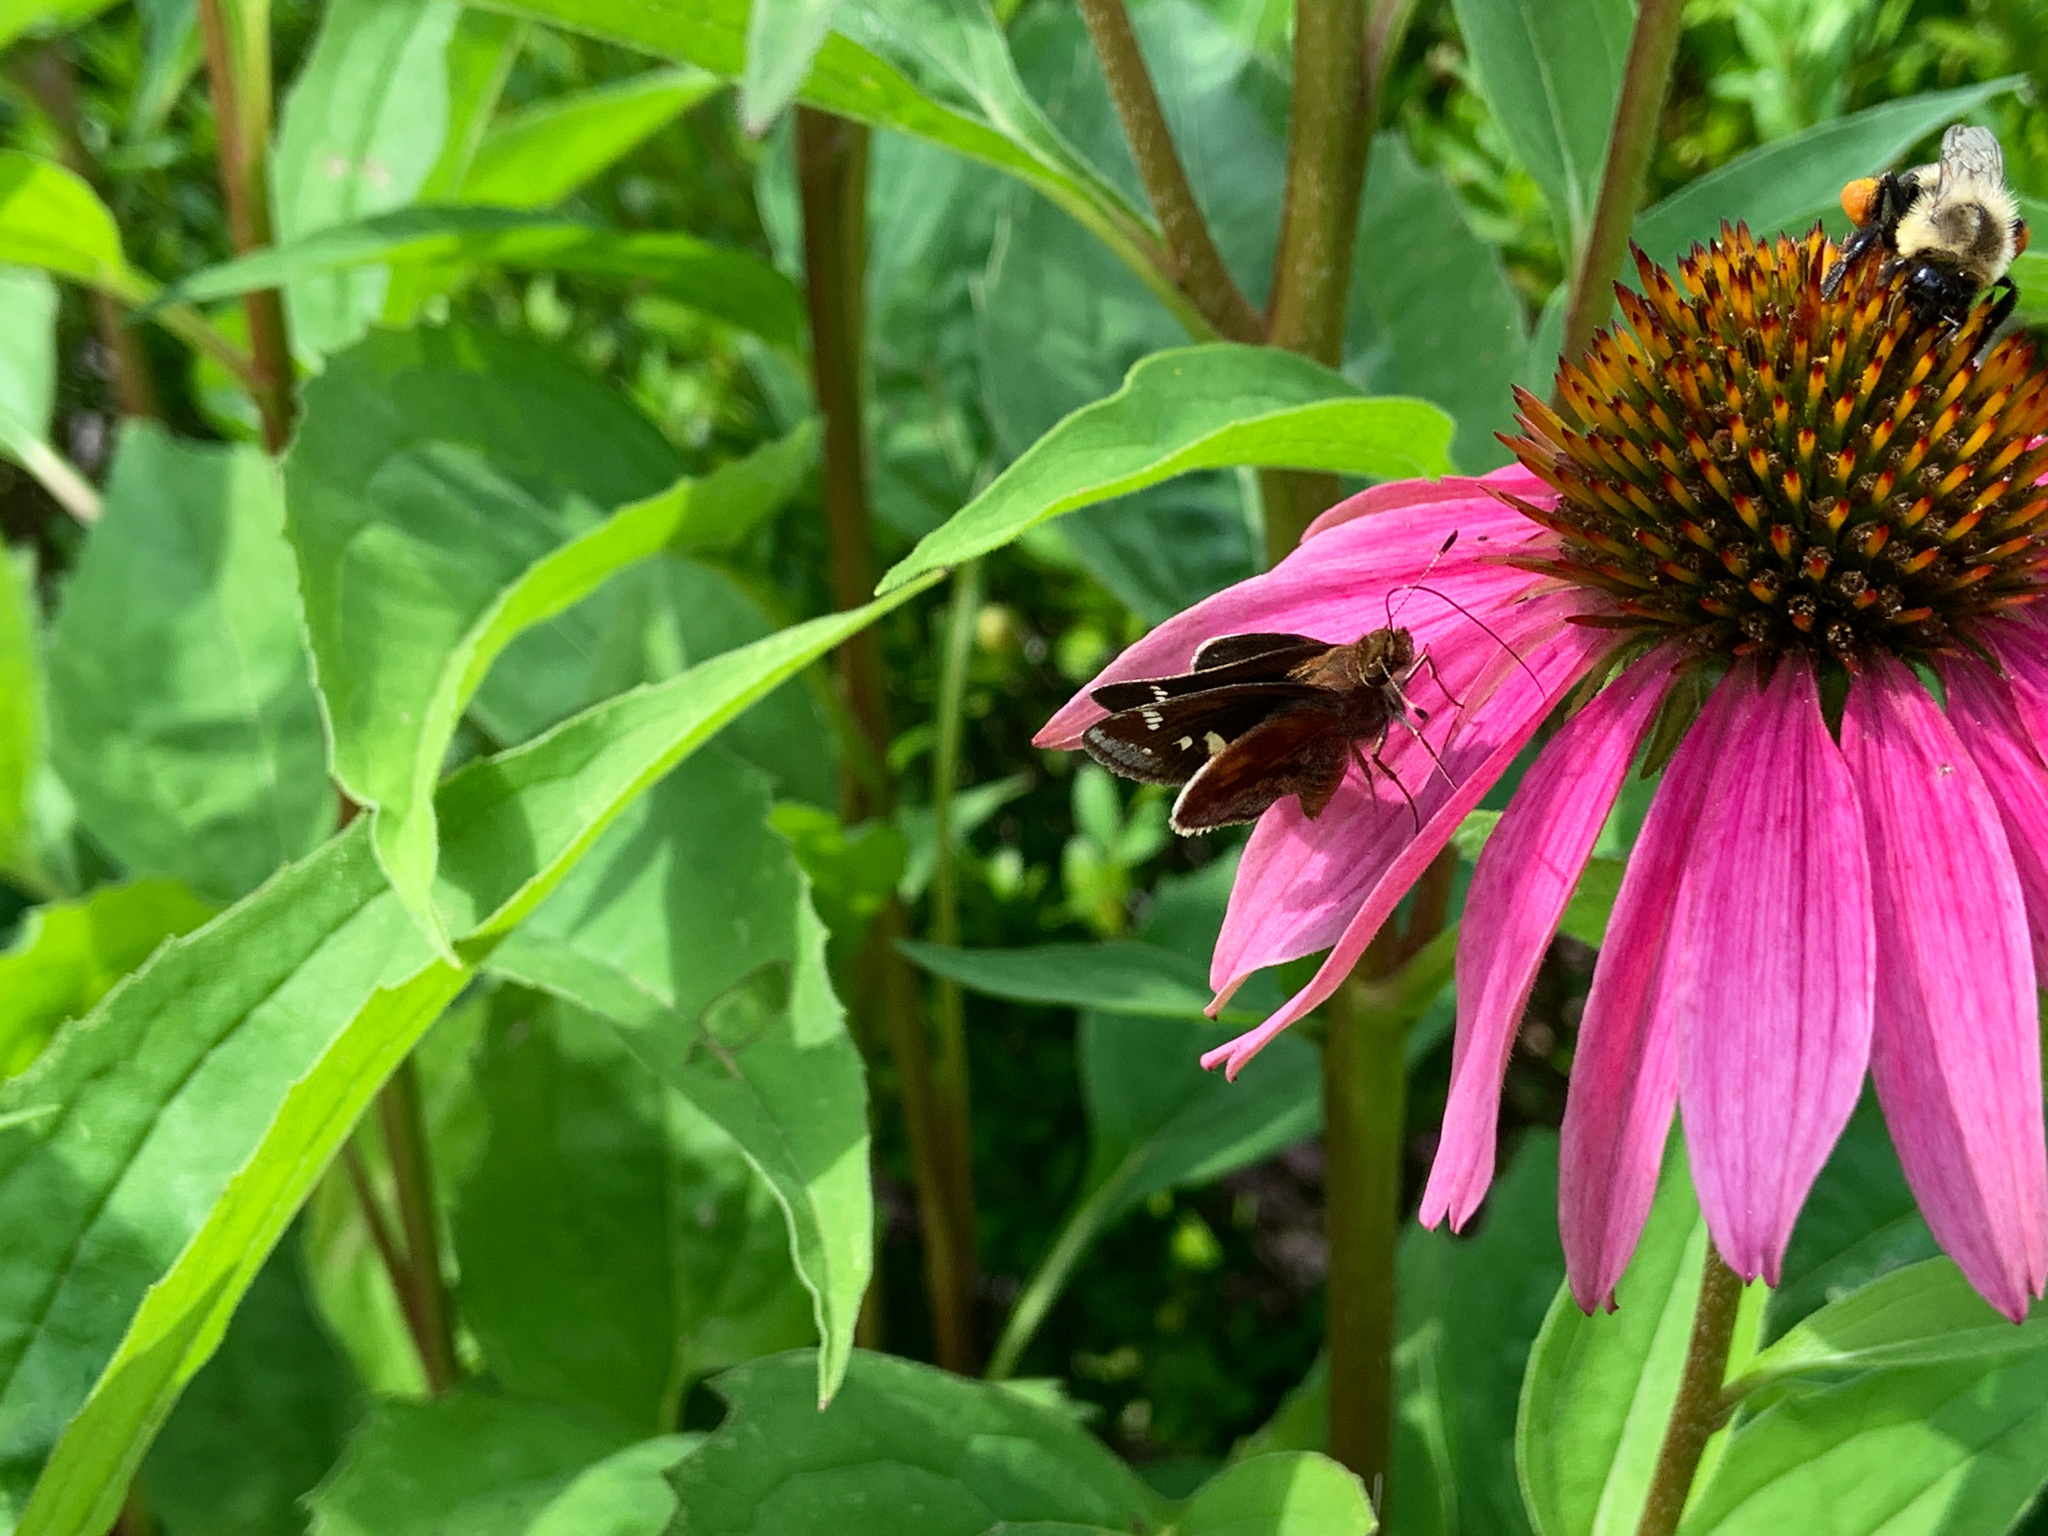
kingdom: Animalia
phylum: Arthropoda
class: Insecta
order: Lepidoptera
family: Hesperiidae
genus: Lon
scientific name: Lon zabulon
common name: Zabulon skipper
